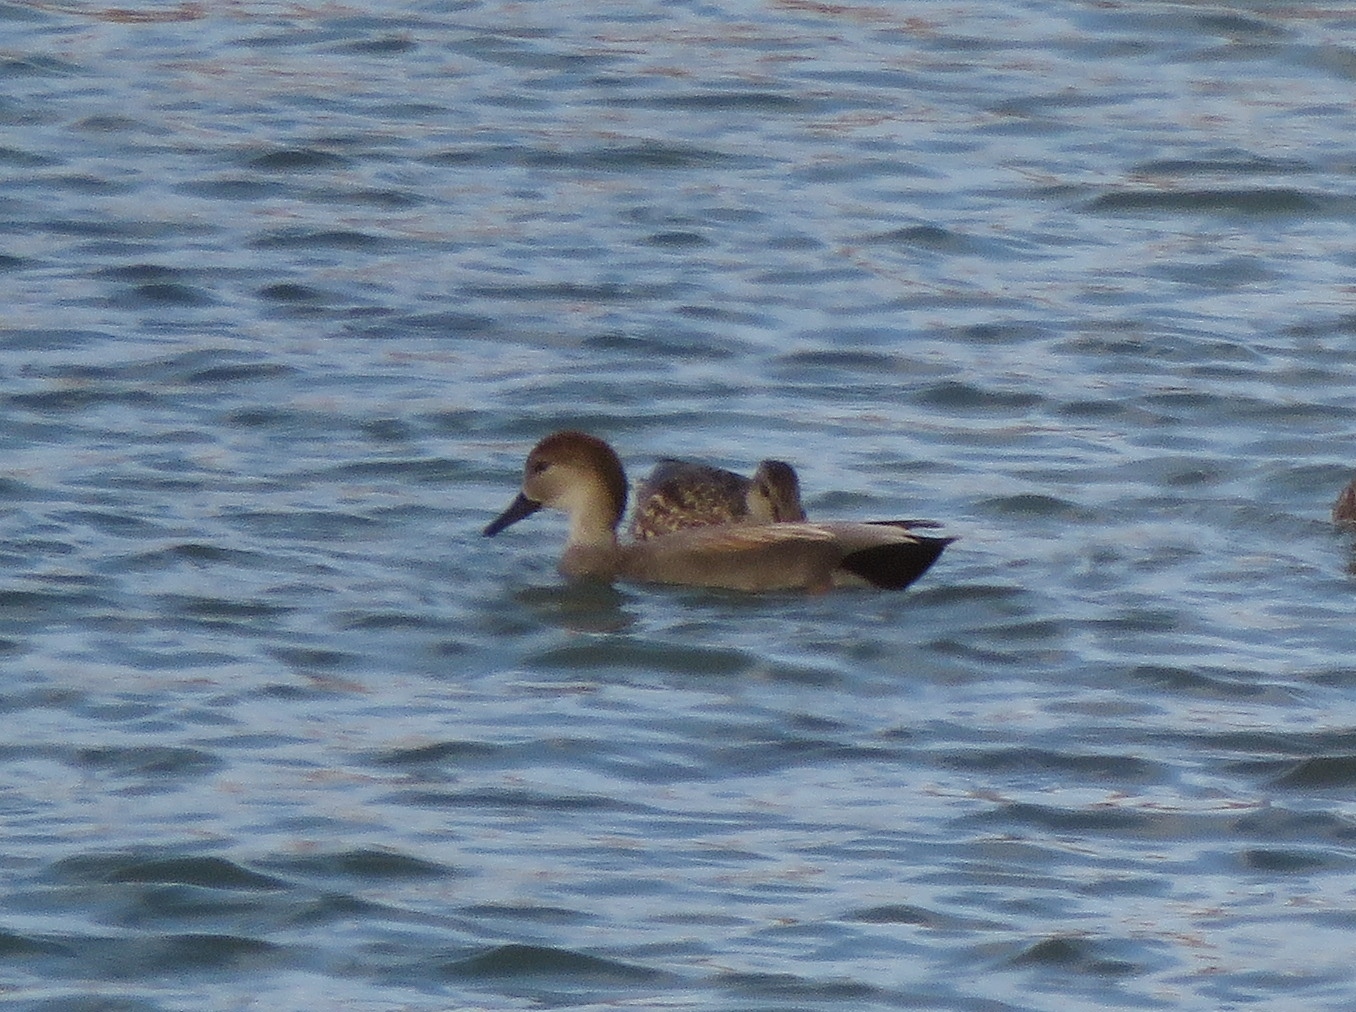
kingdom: Animalia
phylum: Chordata
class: Aves
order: Anseriformes
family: Anatidae
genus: Mareca
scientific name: Mareca strepera
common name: Gadwall
